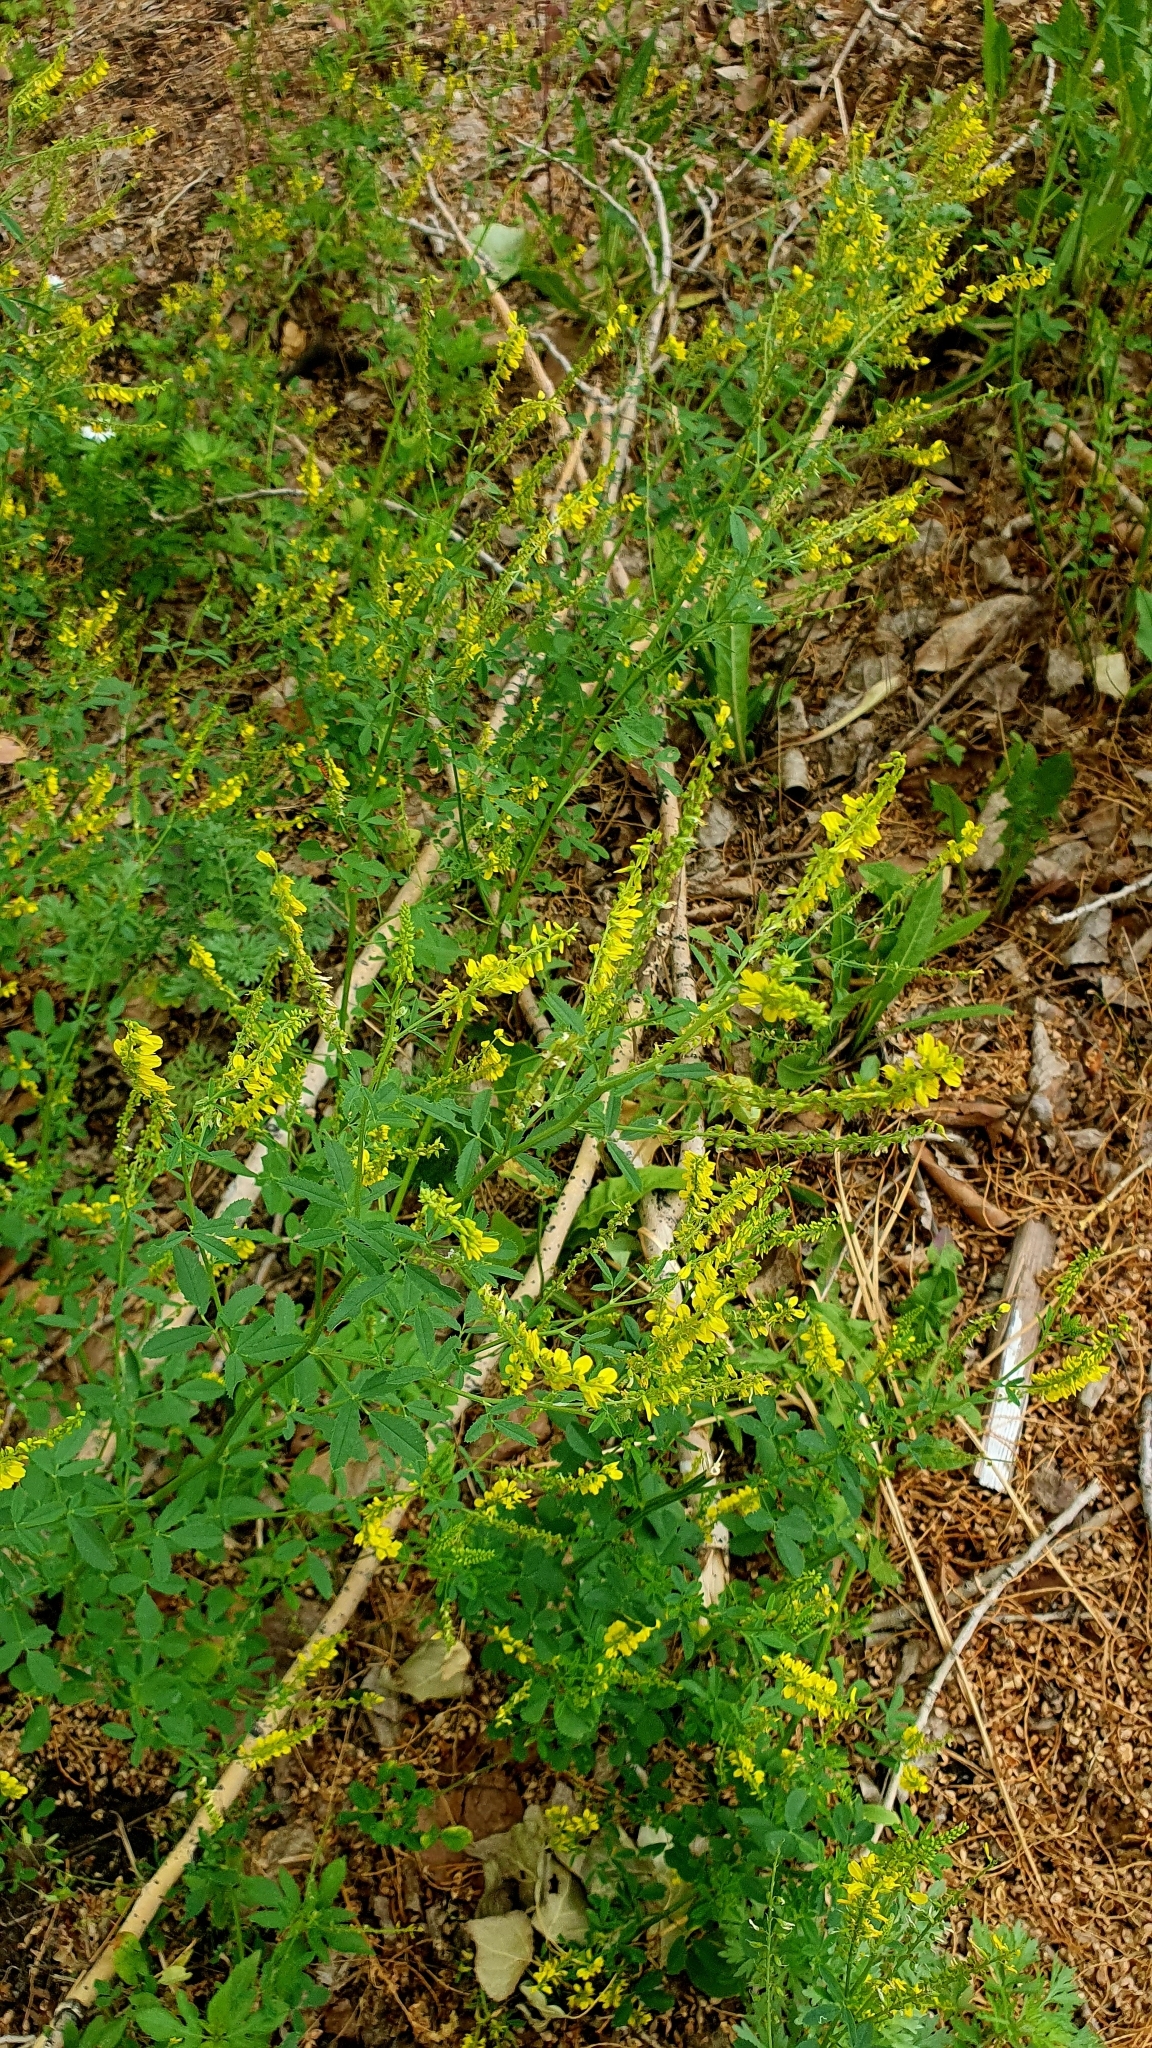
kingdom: Plantae
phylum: Tracheophyta
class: Magnoliopsida
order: Fabales
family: Fabaceae
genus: Melilotus
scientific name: Melilotus officinalis
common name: Sweetclover
